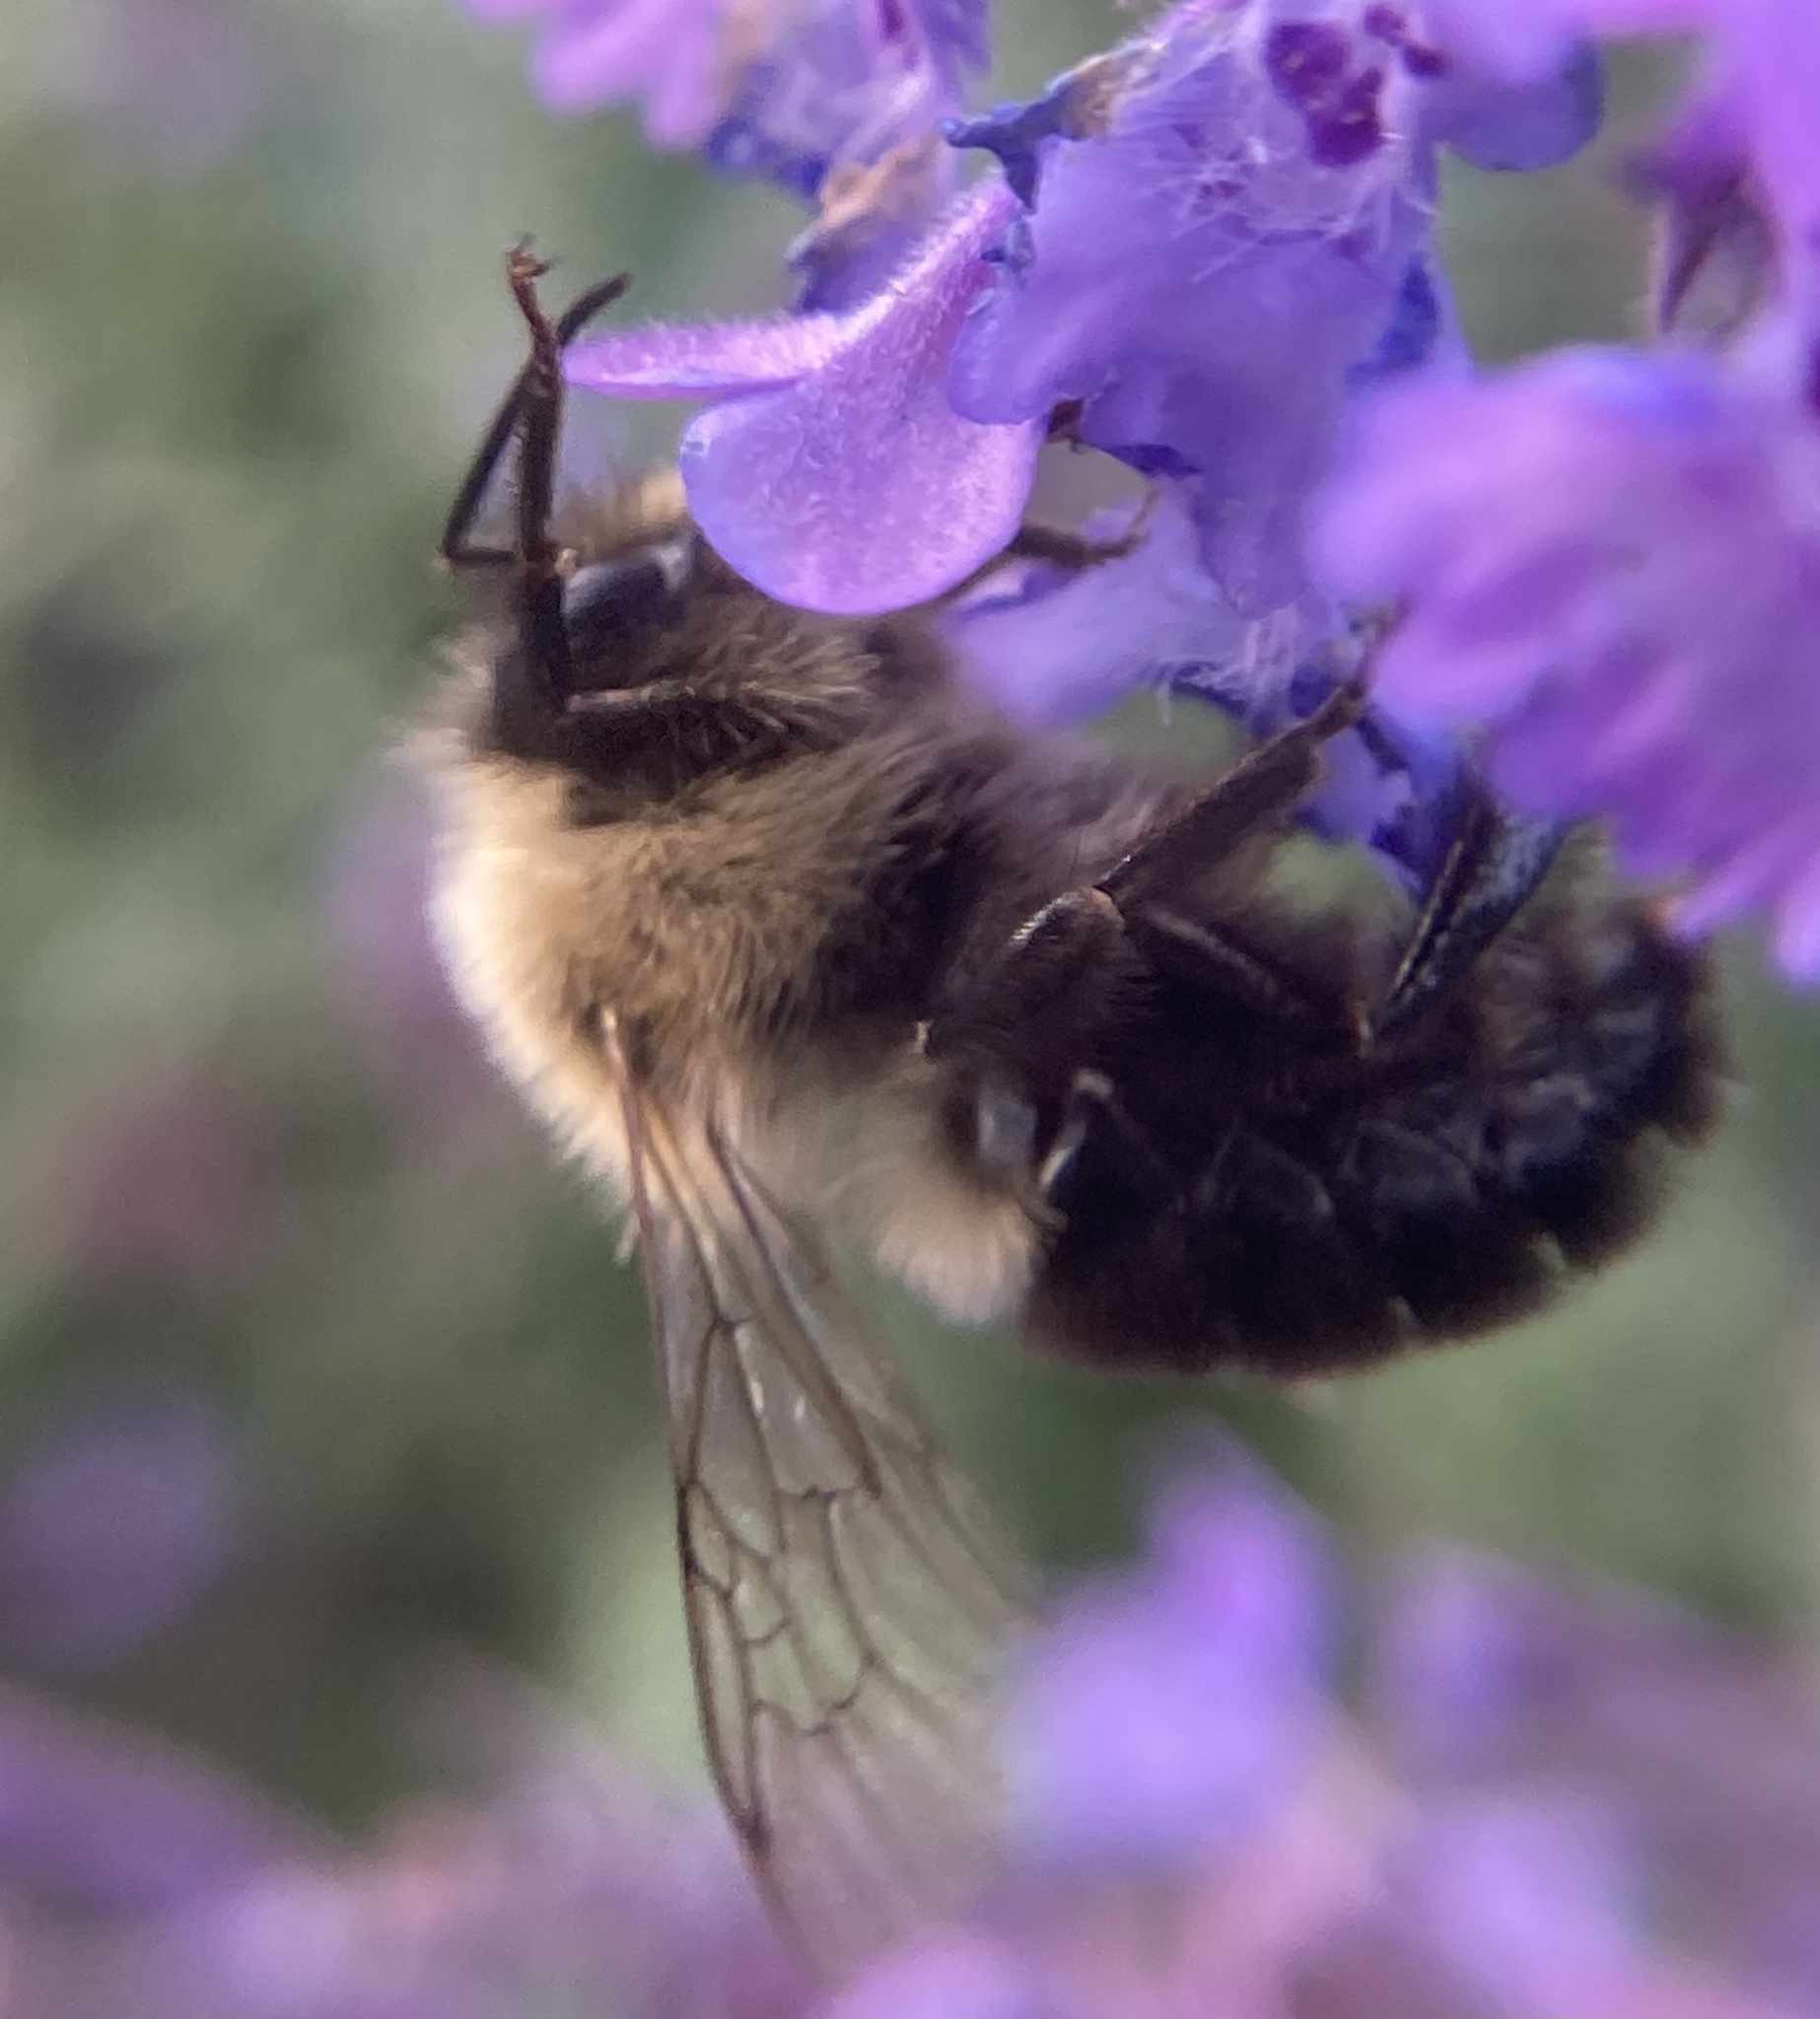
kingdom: Animalia
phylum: Arthropoda
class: Insecta
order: Hymenoptera
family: Apidae
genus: Bombus
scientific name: Bombus impatiens
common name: Common eastern bumble bee
